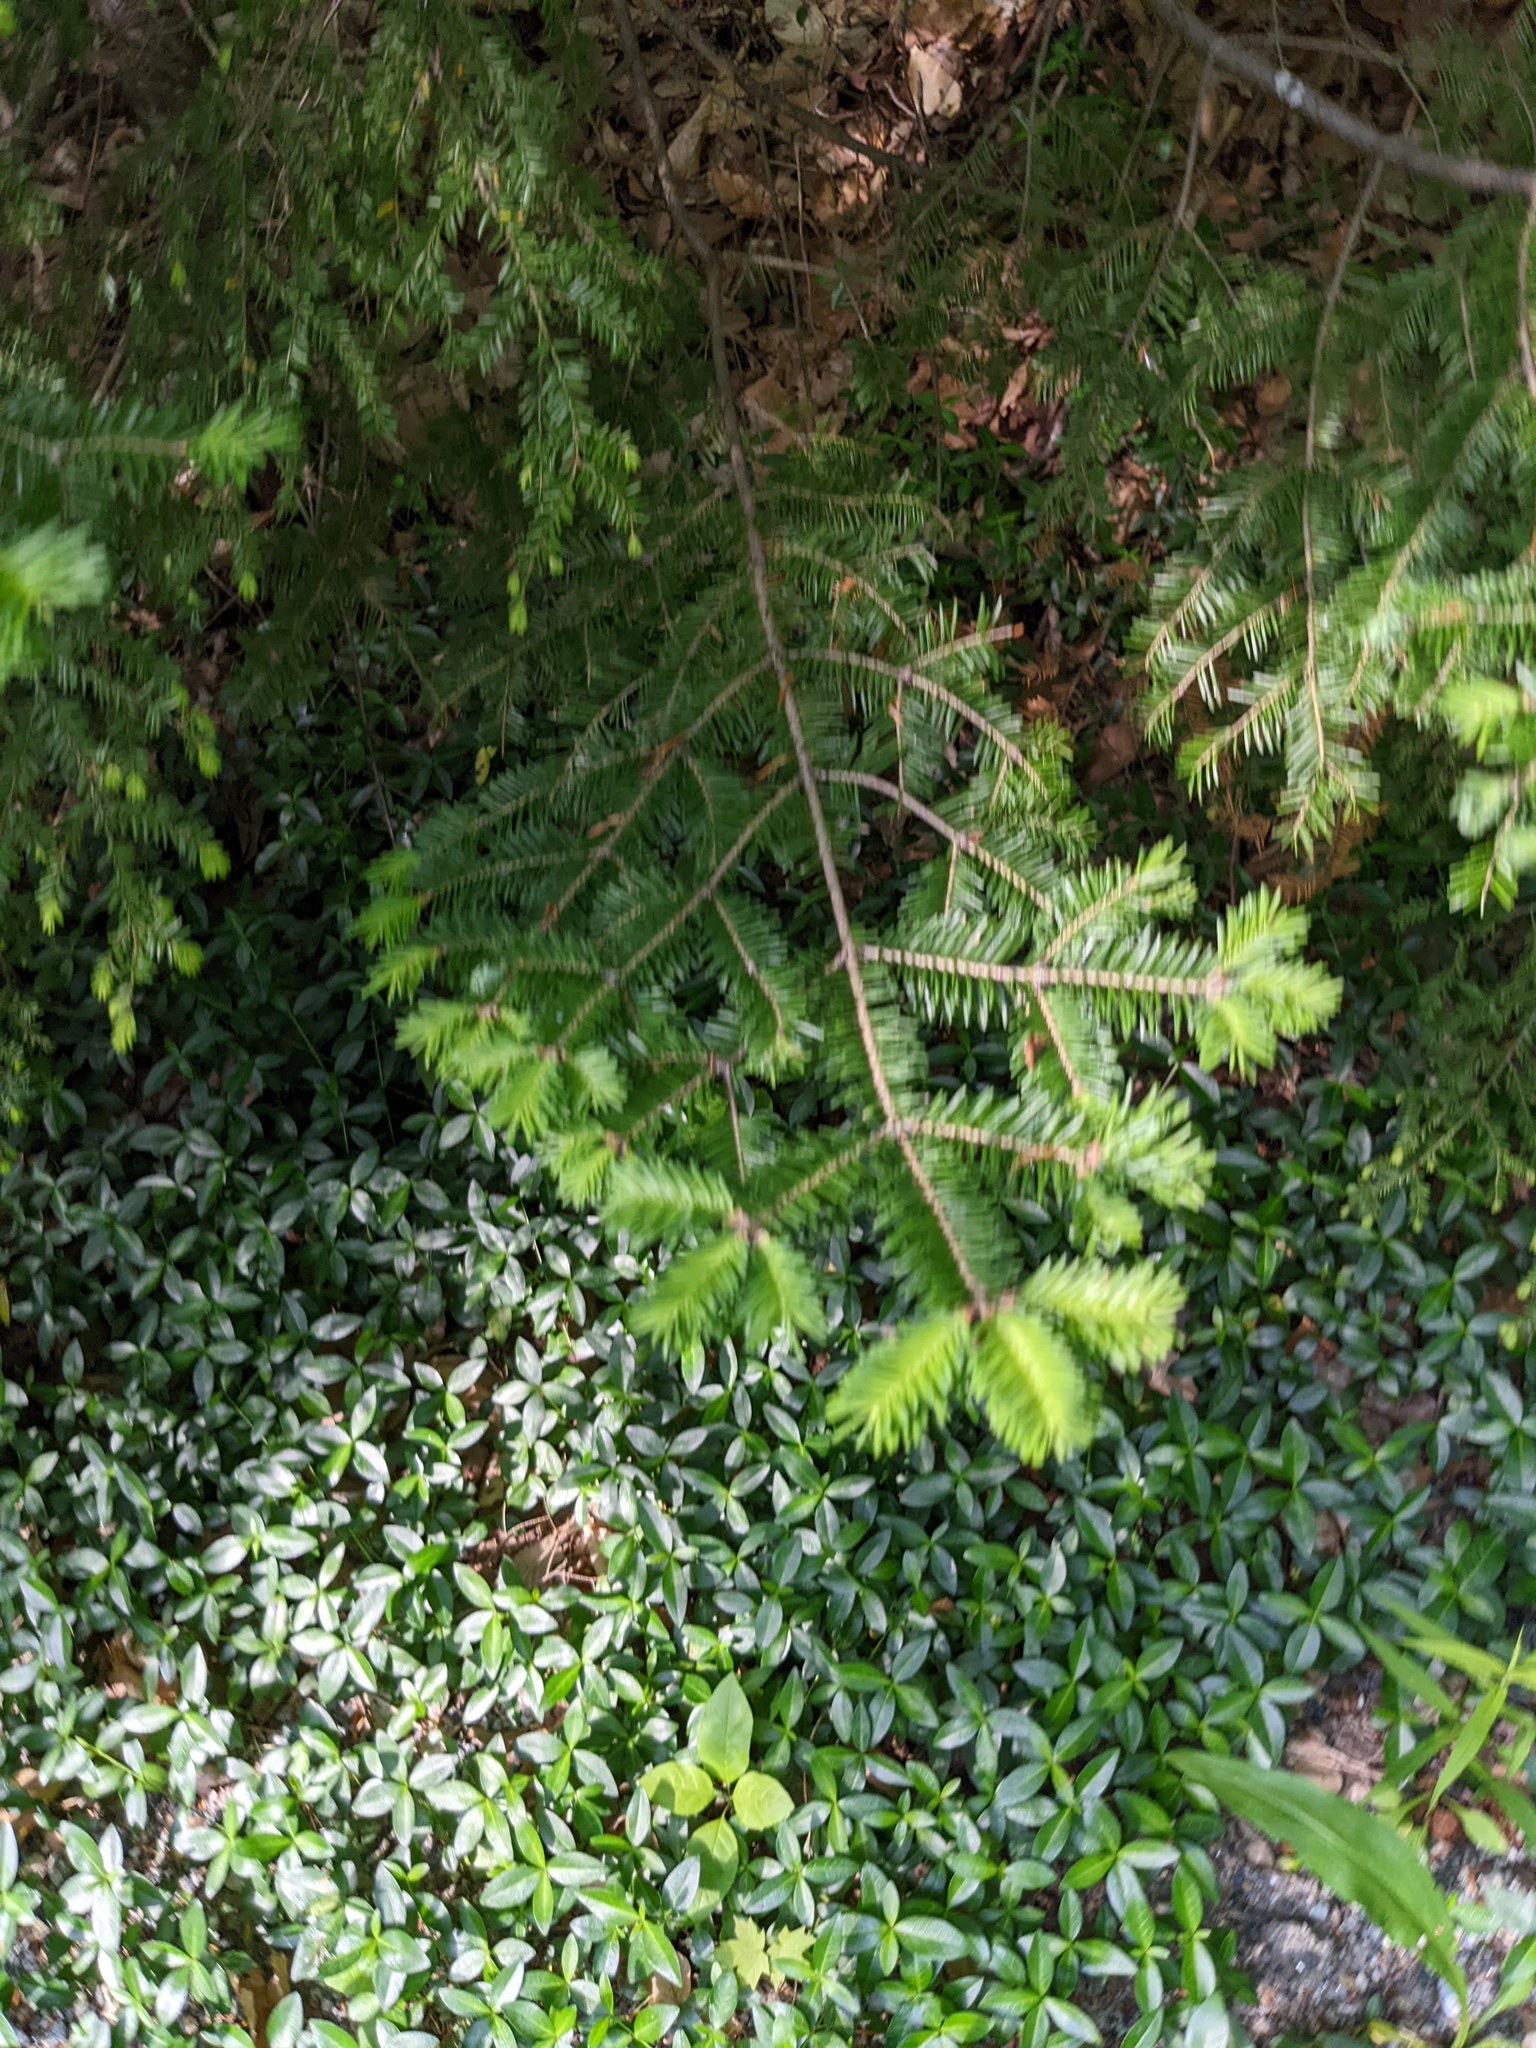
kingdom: Plantae
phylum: Tracheophyta
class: Pinopsida
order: Pinales
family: Pinaceae
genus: Abies
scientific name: Abies balsamea
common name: Balsam fir
